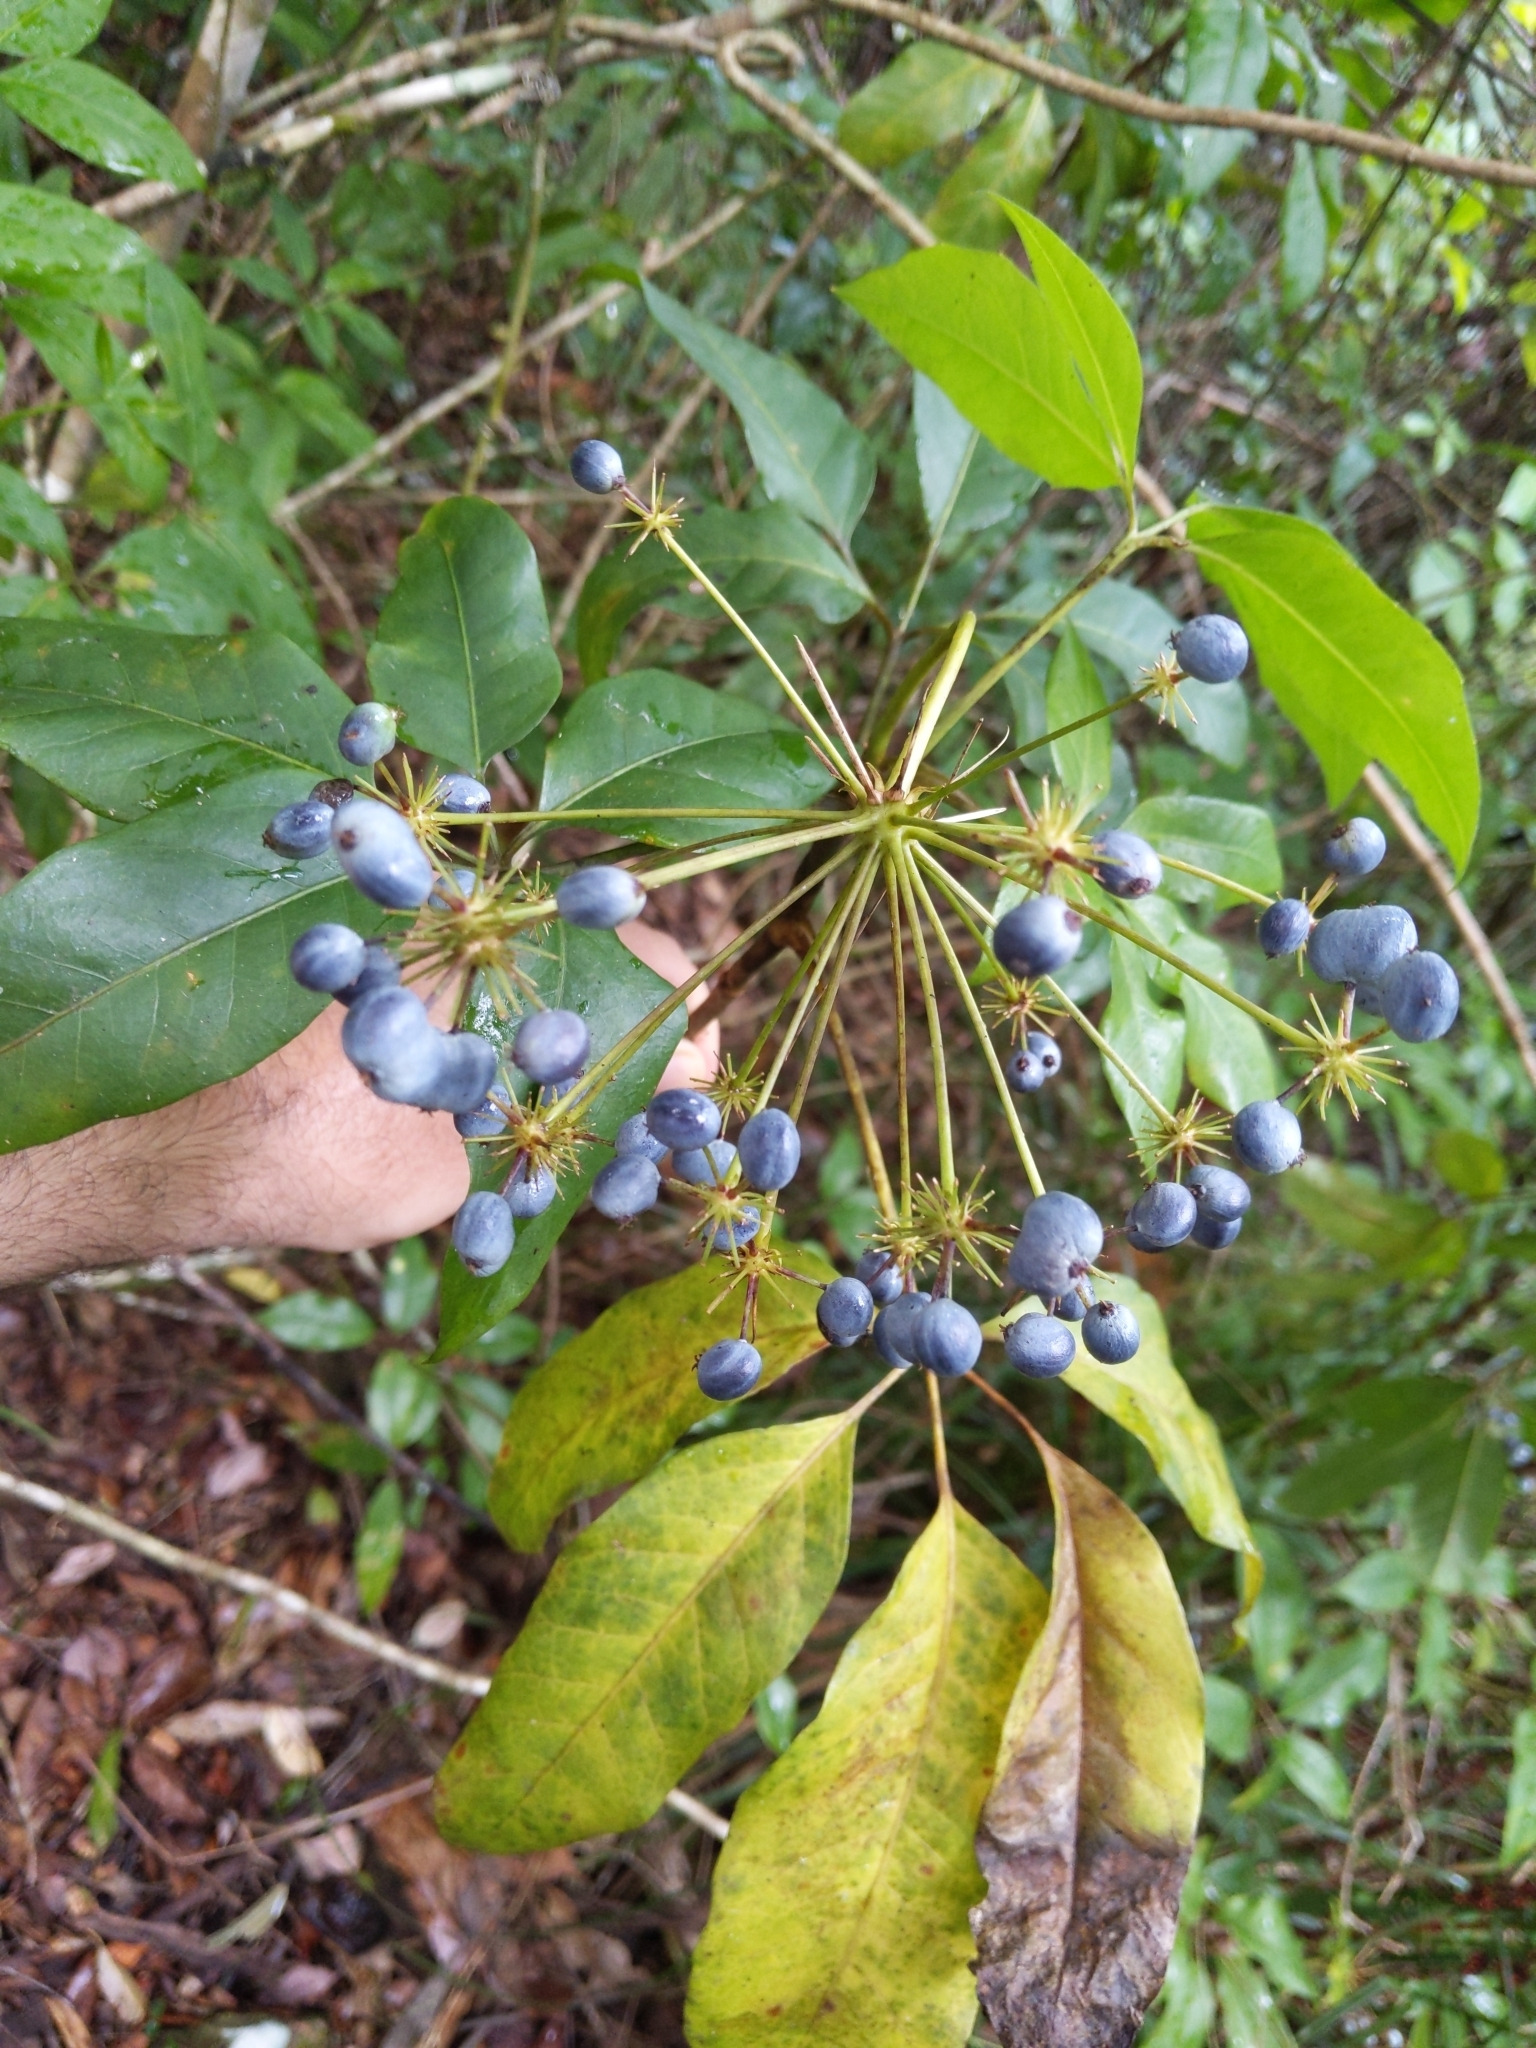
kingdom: Plantae
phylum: Tracheophyta
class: Magnoliopsida
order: Apiales
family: Apiaceae
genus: Mackinlaya
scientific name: Mackinlaya macrosciadea
